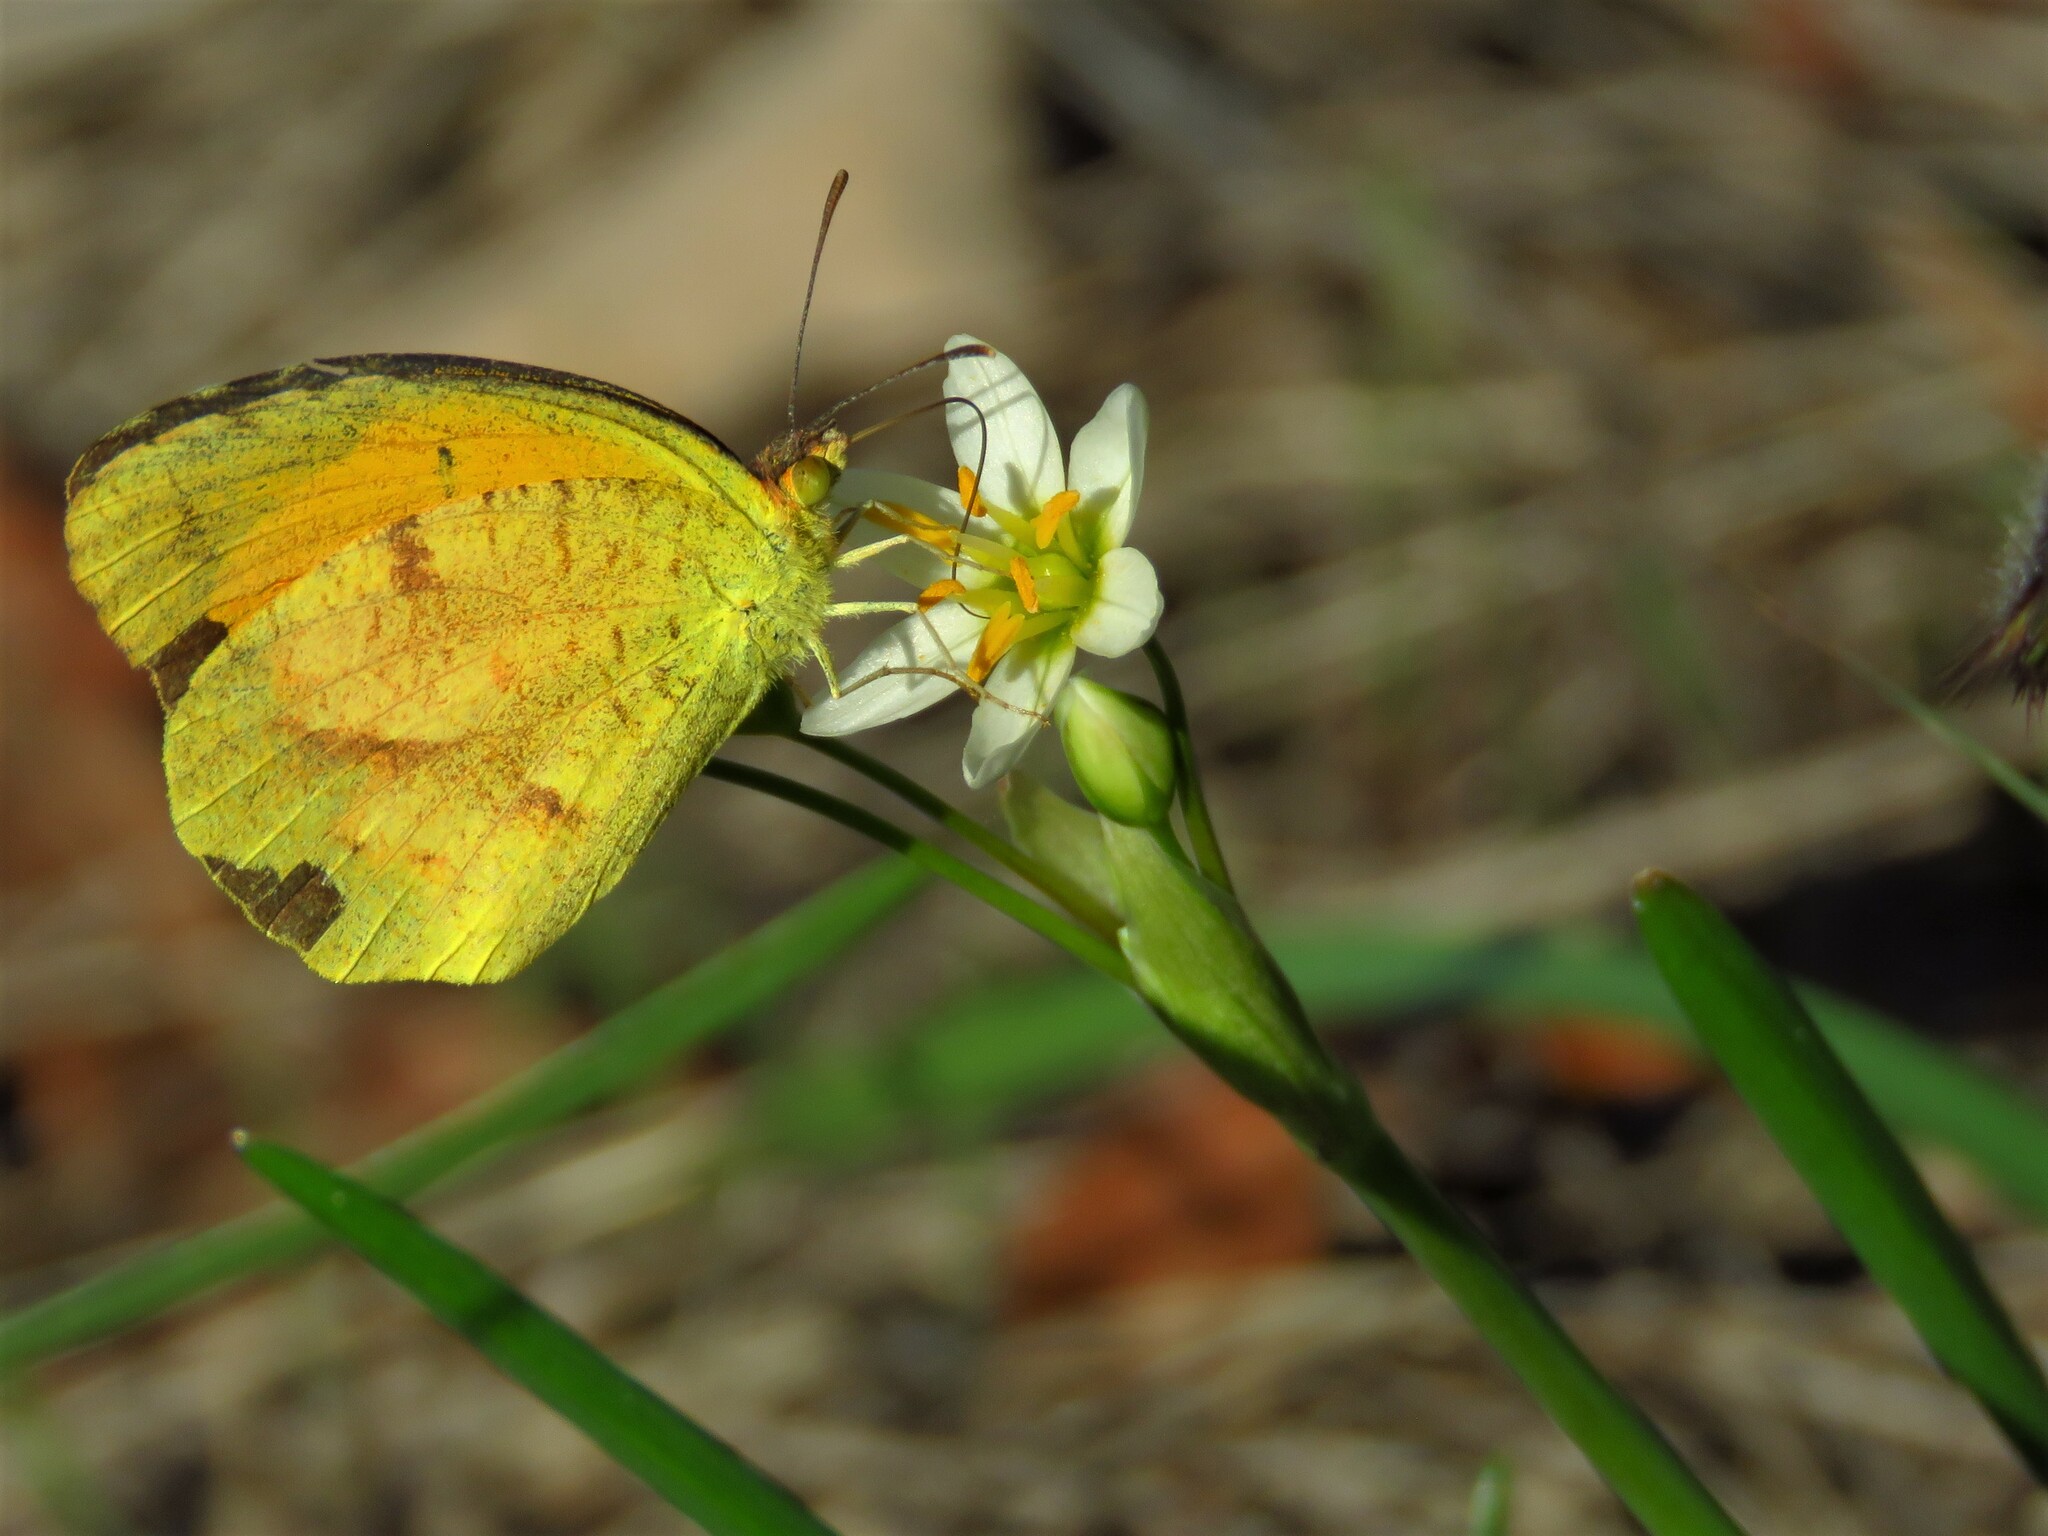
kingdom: Plantae
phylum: Tracheophyta
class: Liliopsida
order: Asparagales
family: Amaryllidaceae
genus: Nothoscordum
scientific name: Nothoscordum bivalve
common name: Crow-poison
